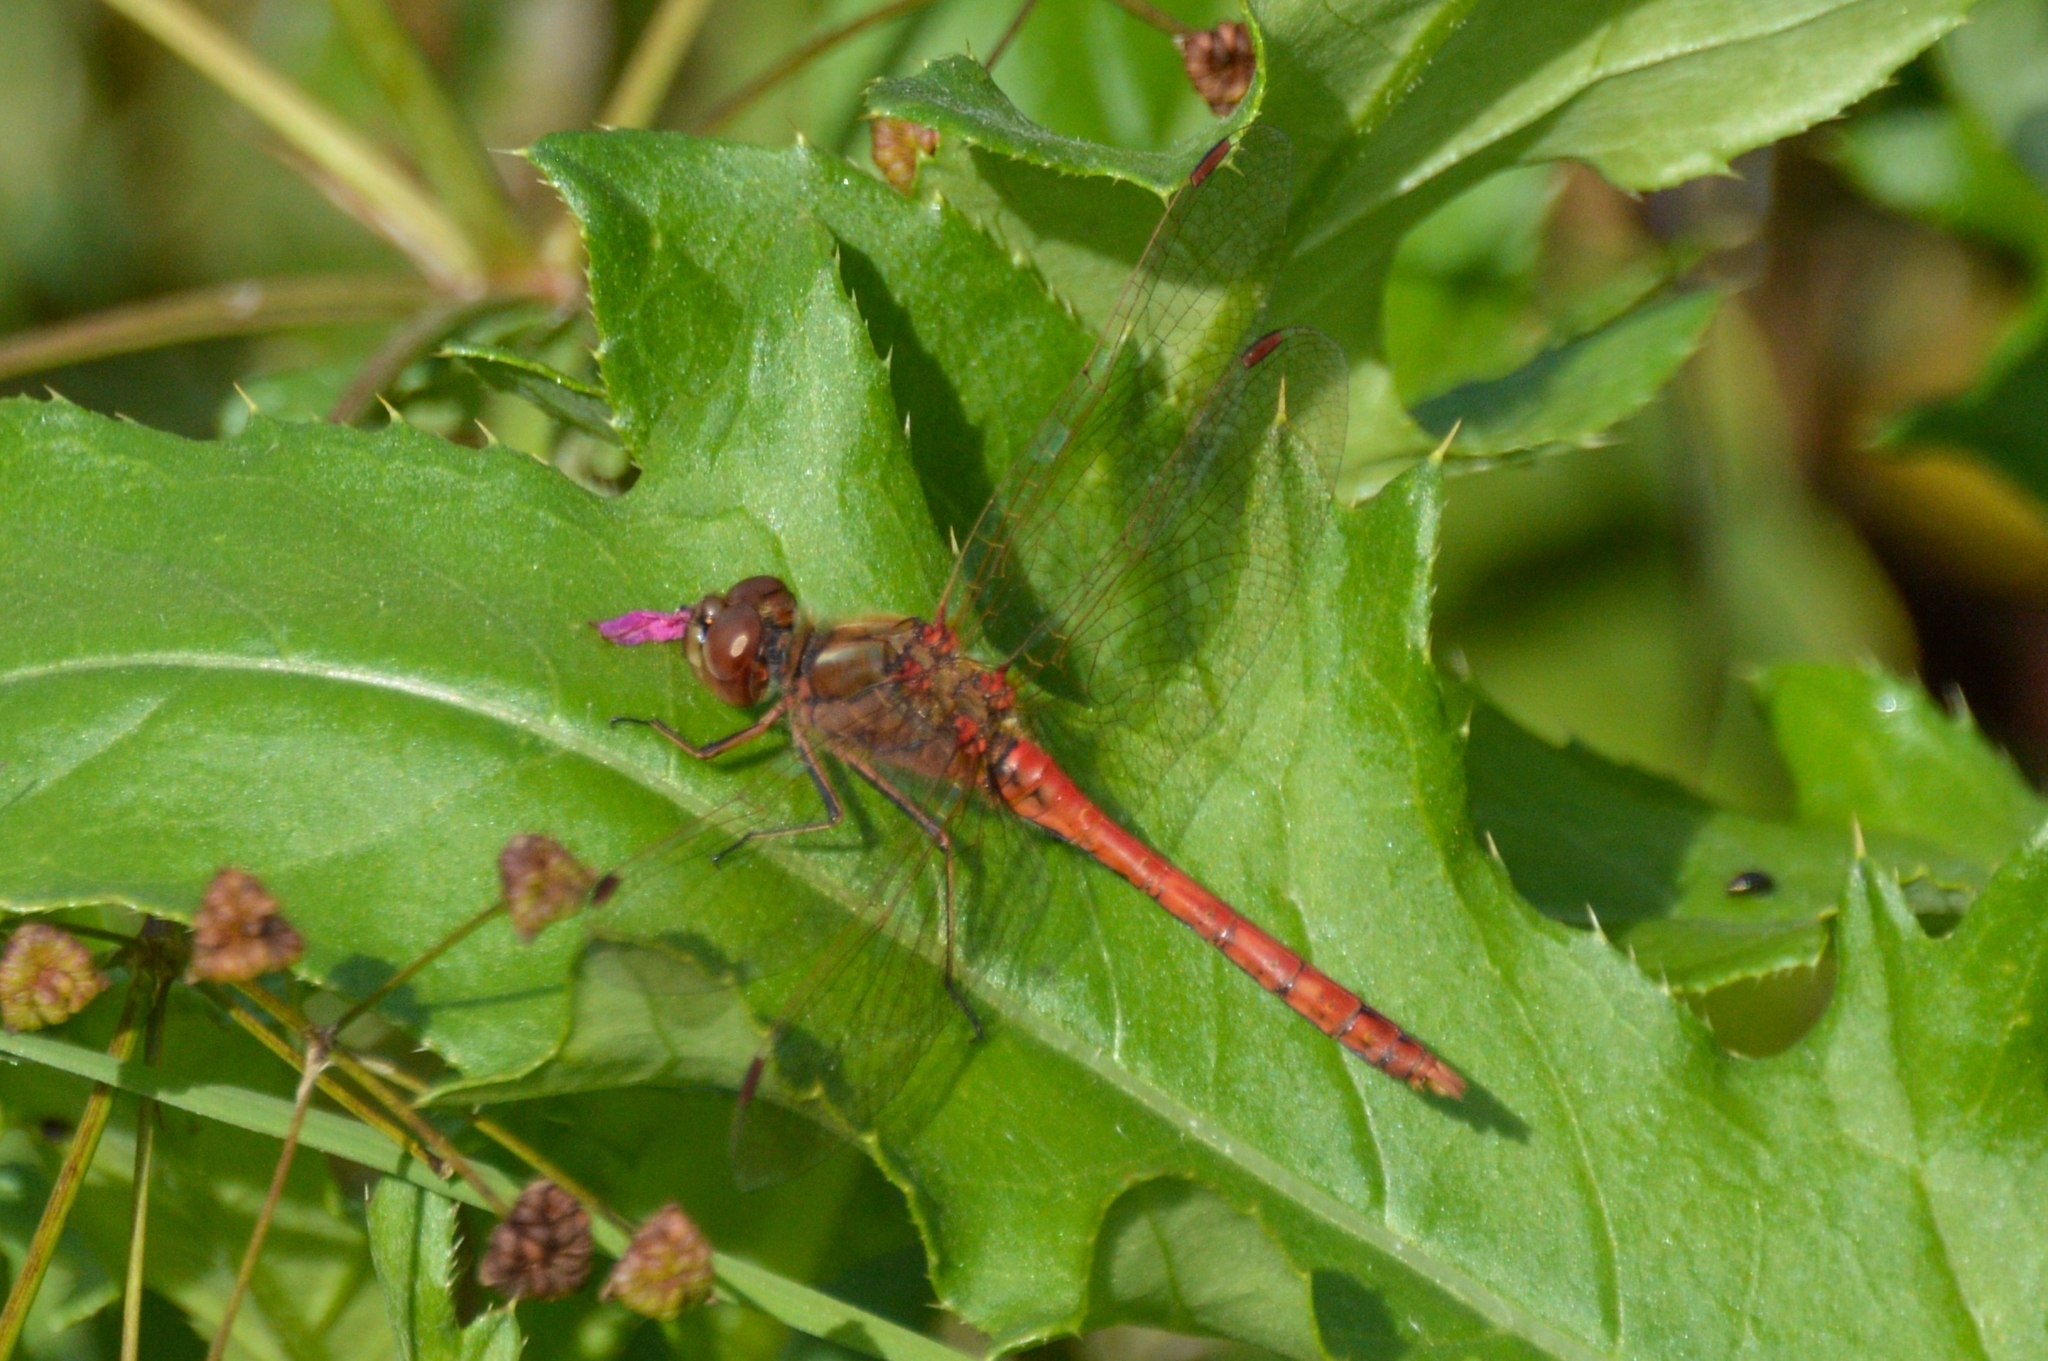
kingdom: Animalia
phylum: Arthropoda
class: Insecta
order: Odonata
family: Libellulidae
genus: Sympetrum
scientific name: Sympetrum vulgatum
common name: Vagrant darter
